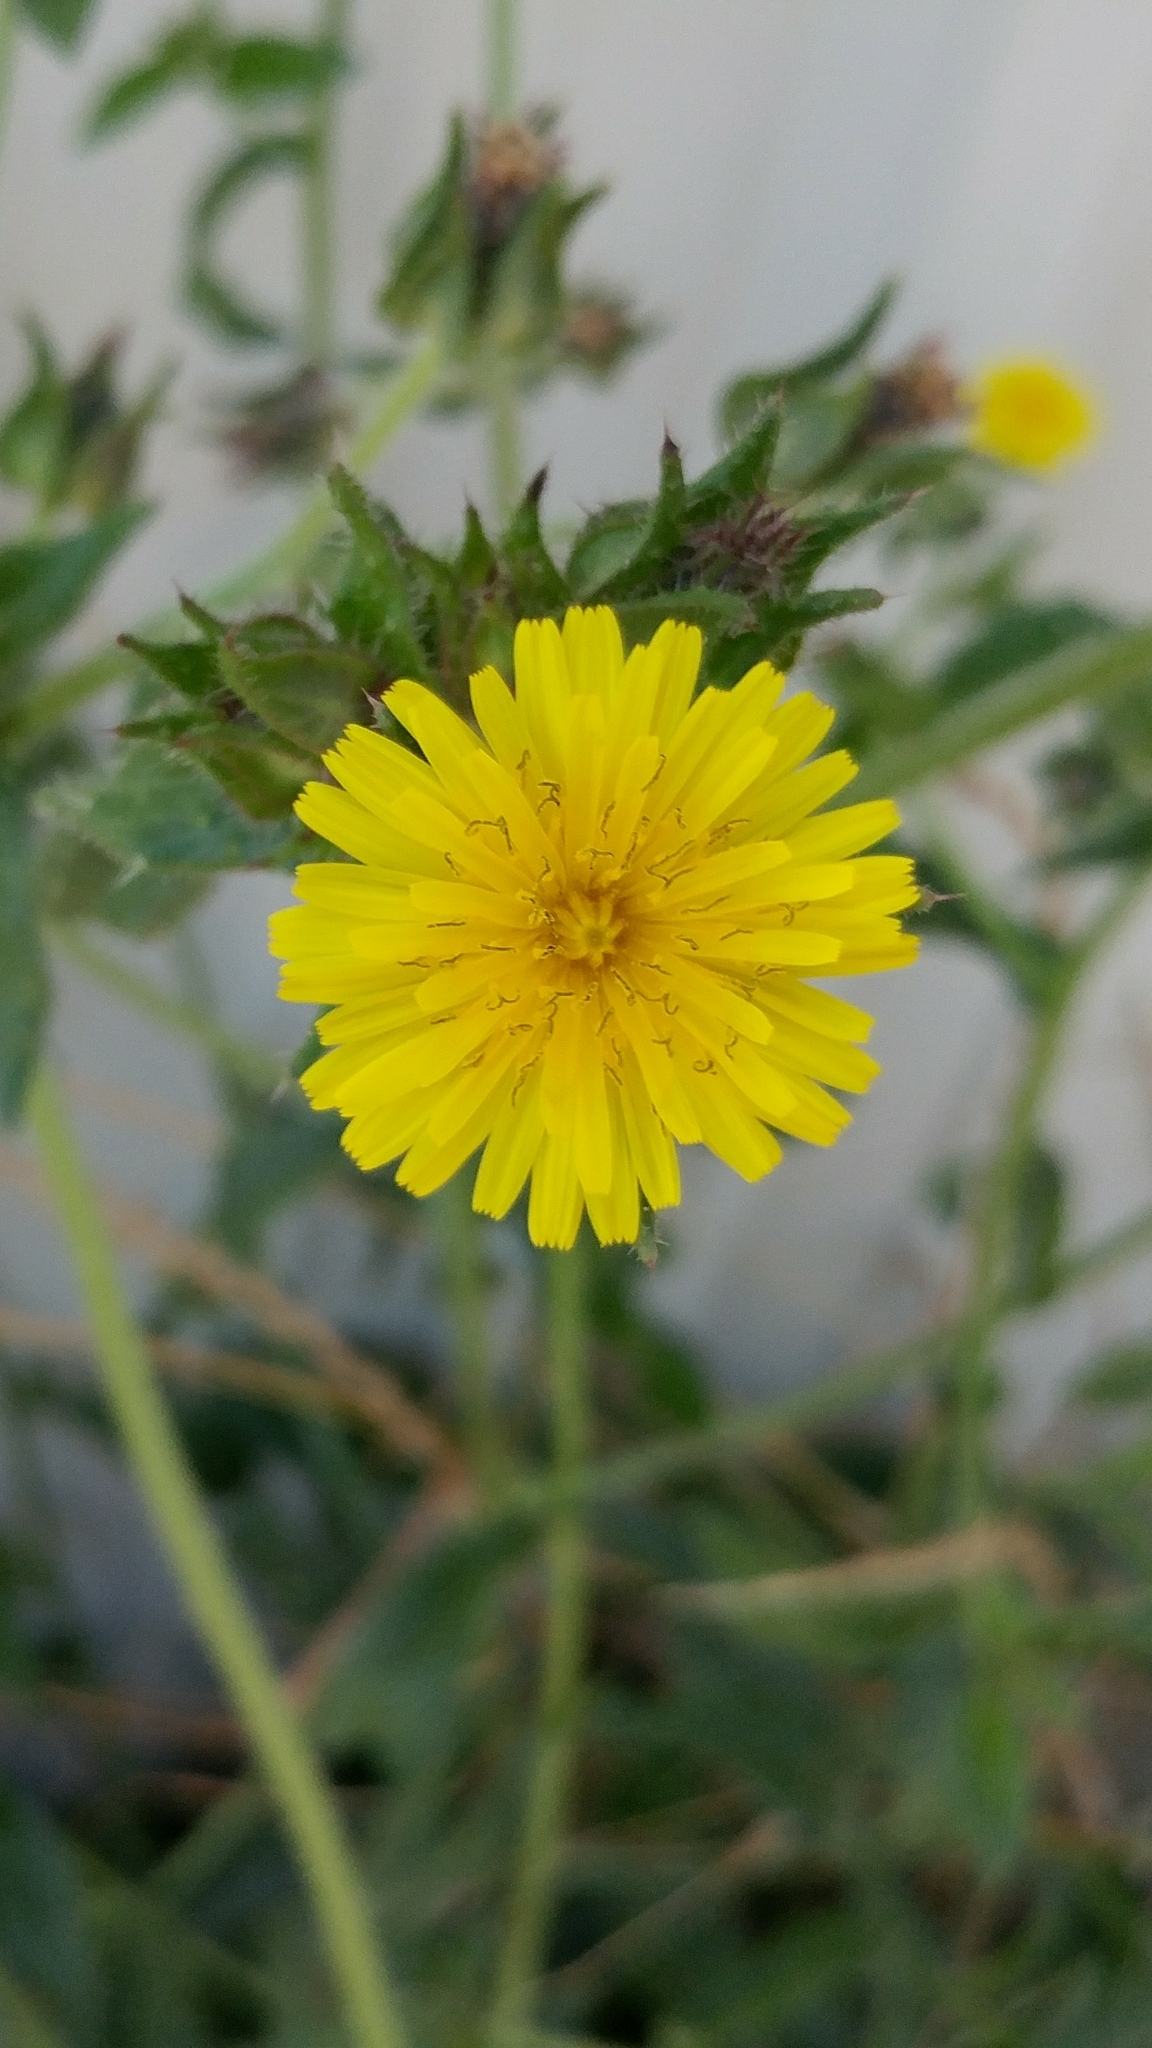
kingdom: Plantae
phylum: Tracheophyta
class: Magnoliopsida
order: Asterales
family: Asteraceae
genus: Helminthotheca
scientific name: Helminthotheca echioides
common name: Ox-tongue
